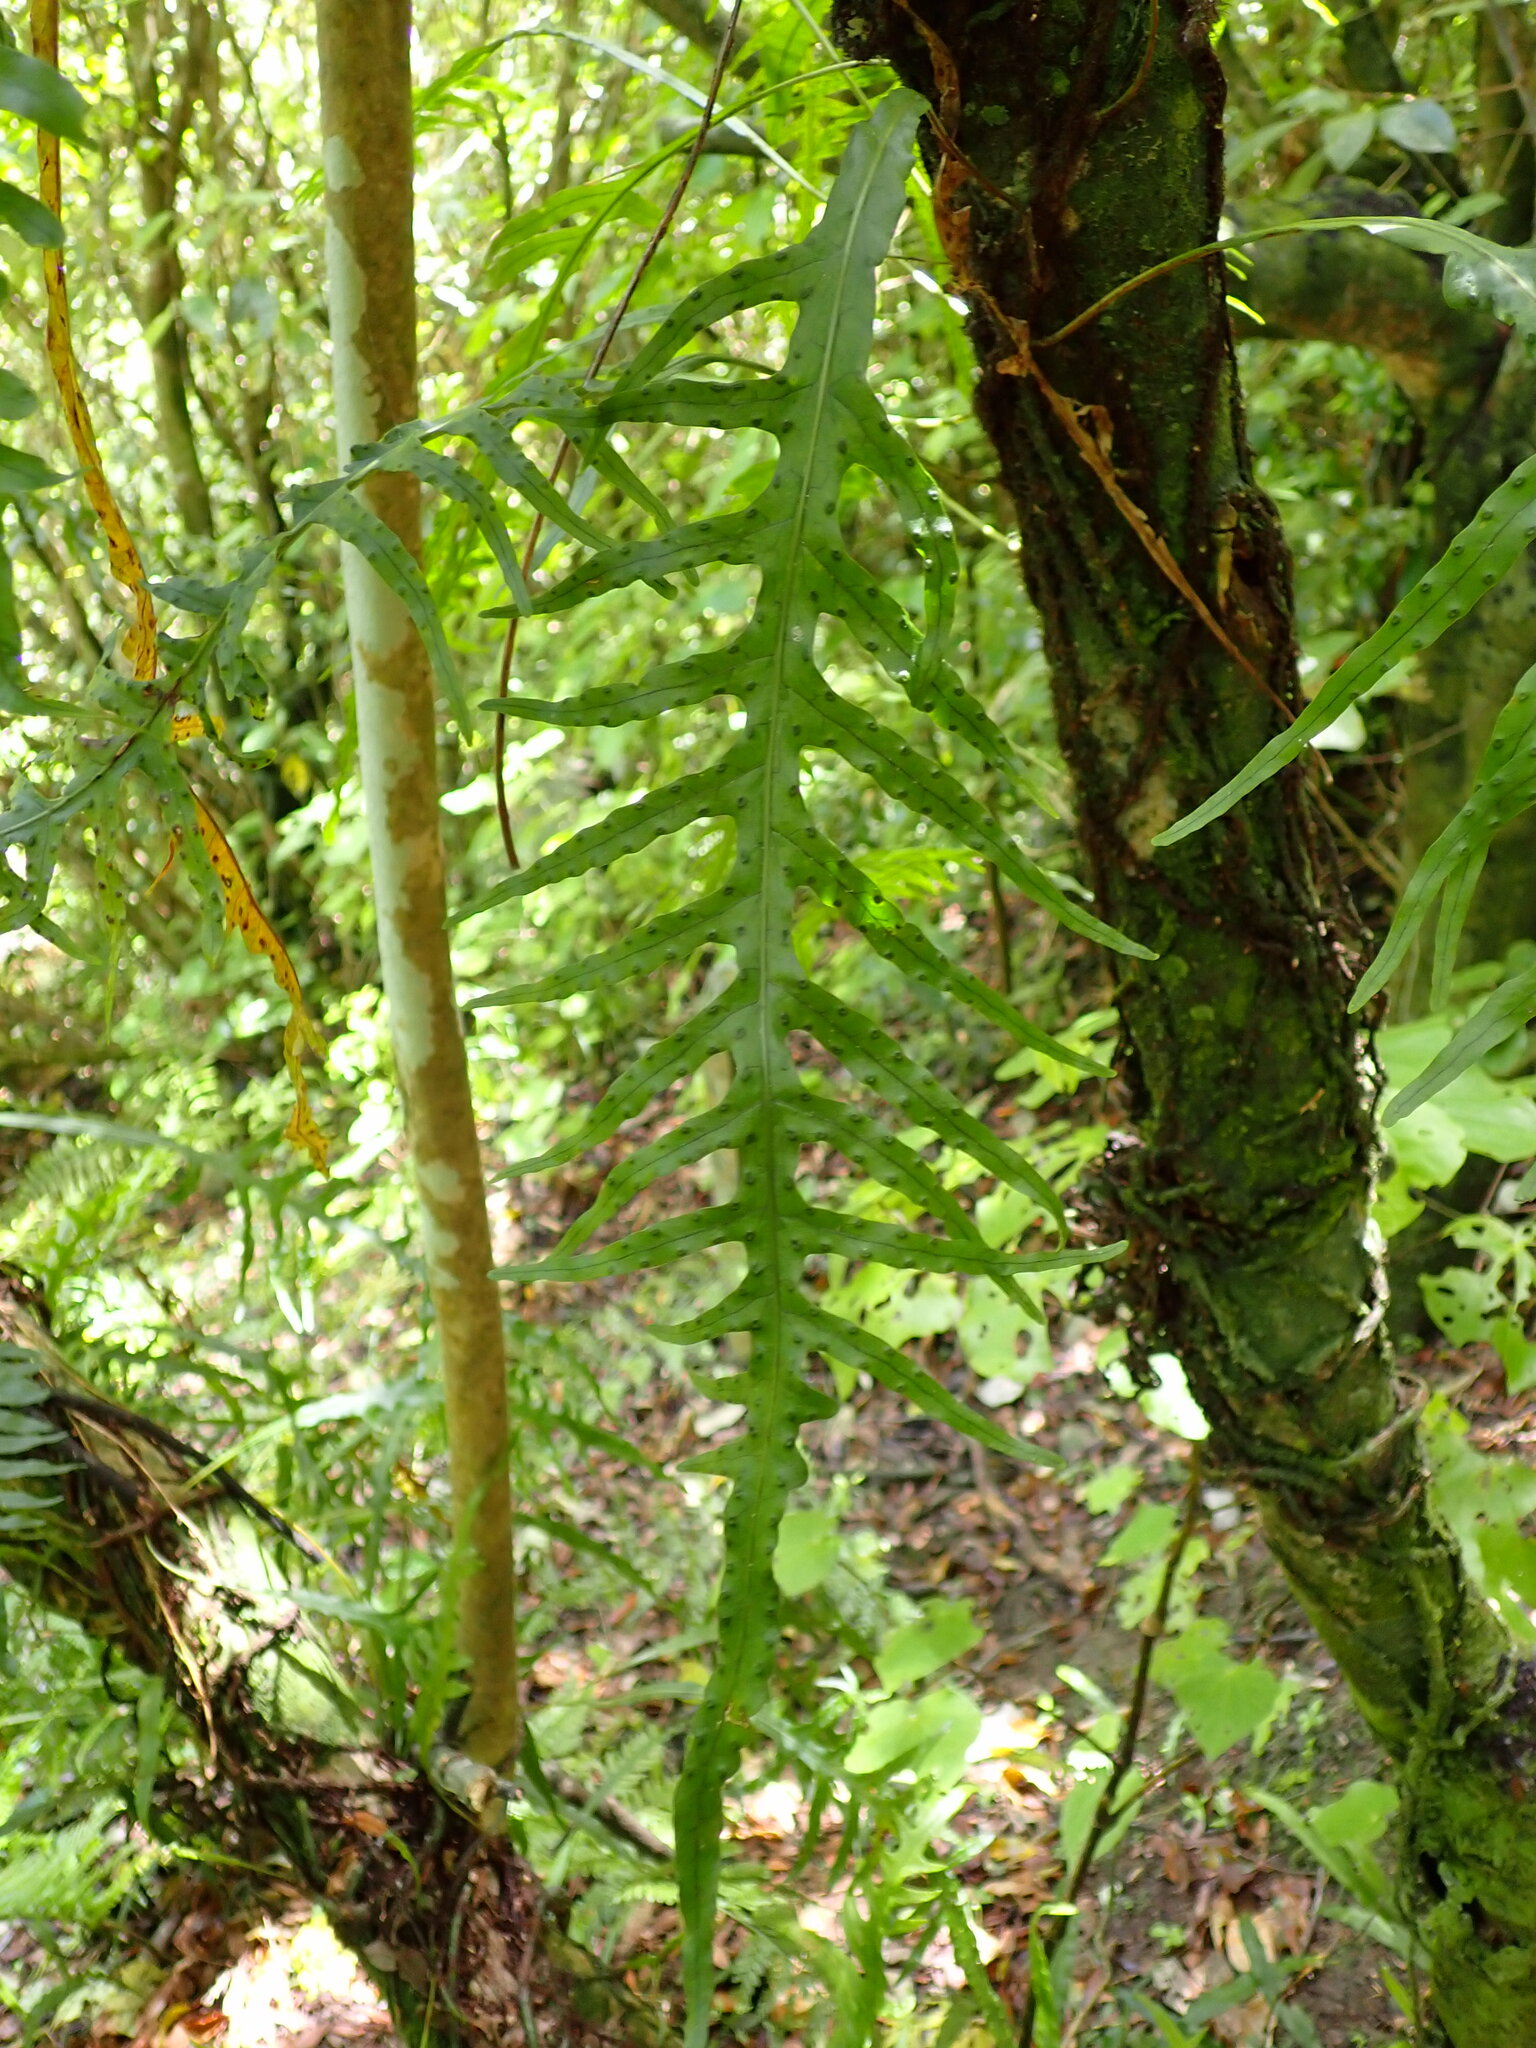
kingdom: Plantae
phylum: Tracheophyta
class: Polypodiopsida
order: Polypodiales
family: Polypodiaceae
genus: Lecanopteris
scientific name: Lecanopteris scandens
